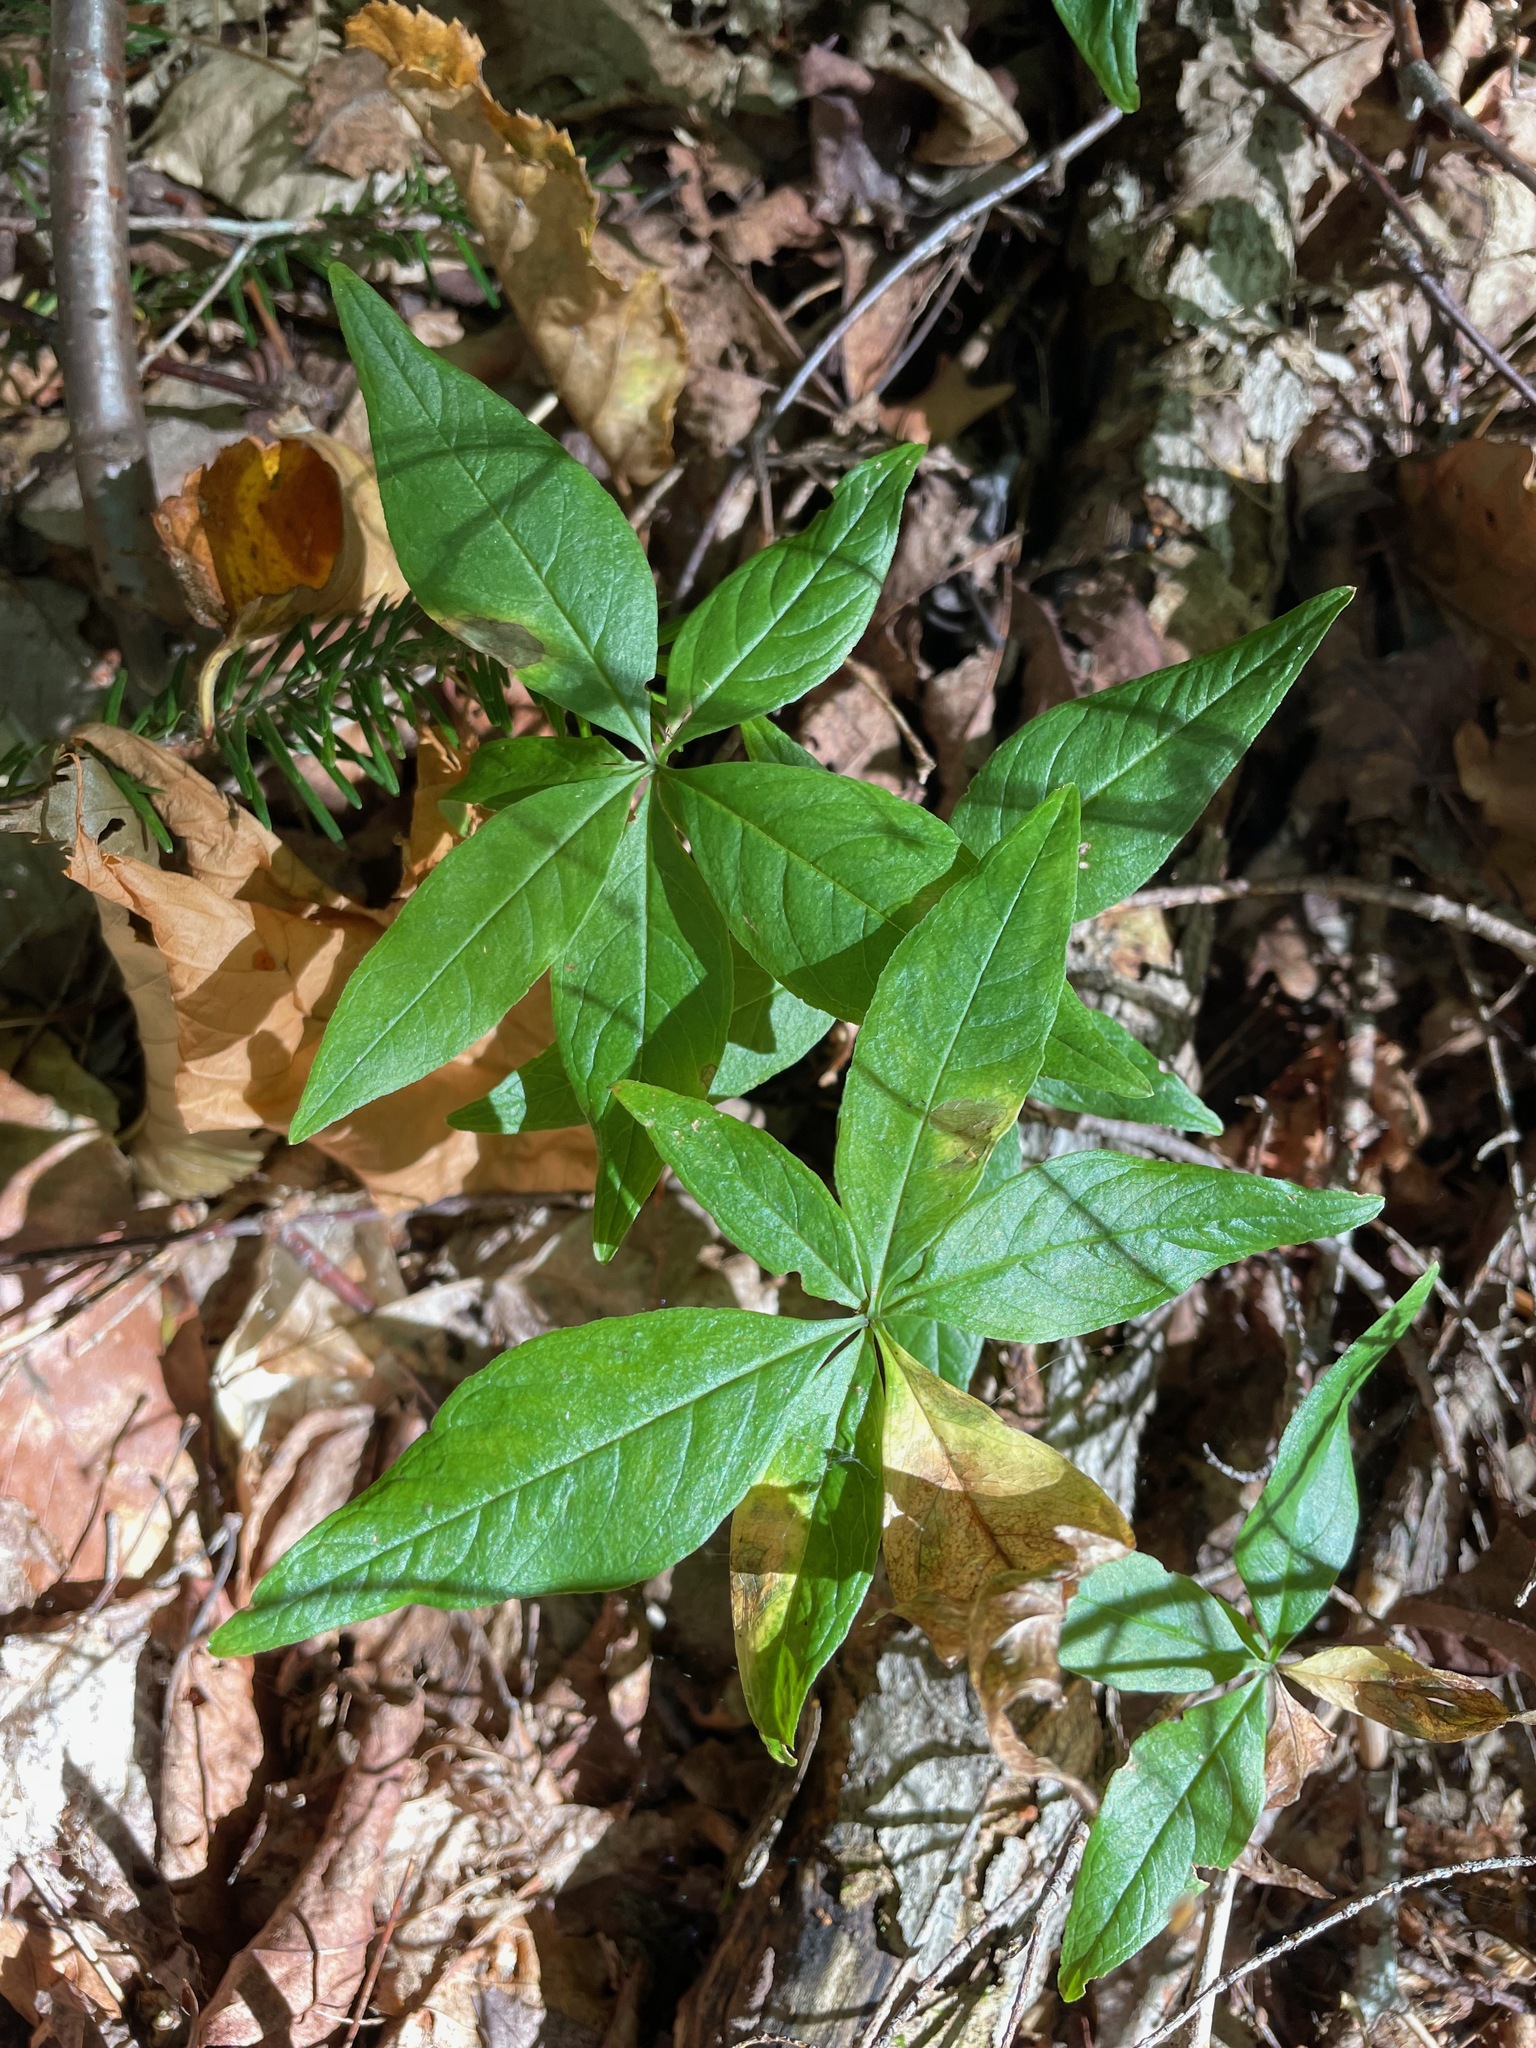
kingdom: Plantae
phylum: Tracheophyta
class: Magnoliopsida
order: Ericales
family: Primulaceae
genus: Lysimachia
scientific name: Lysimachia borealis
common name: American starflower
